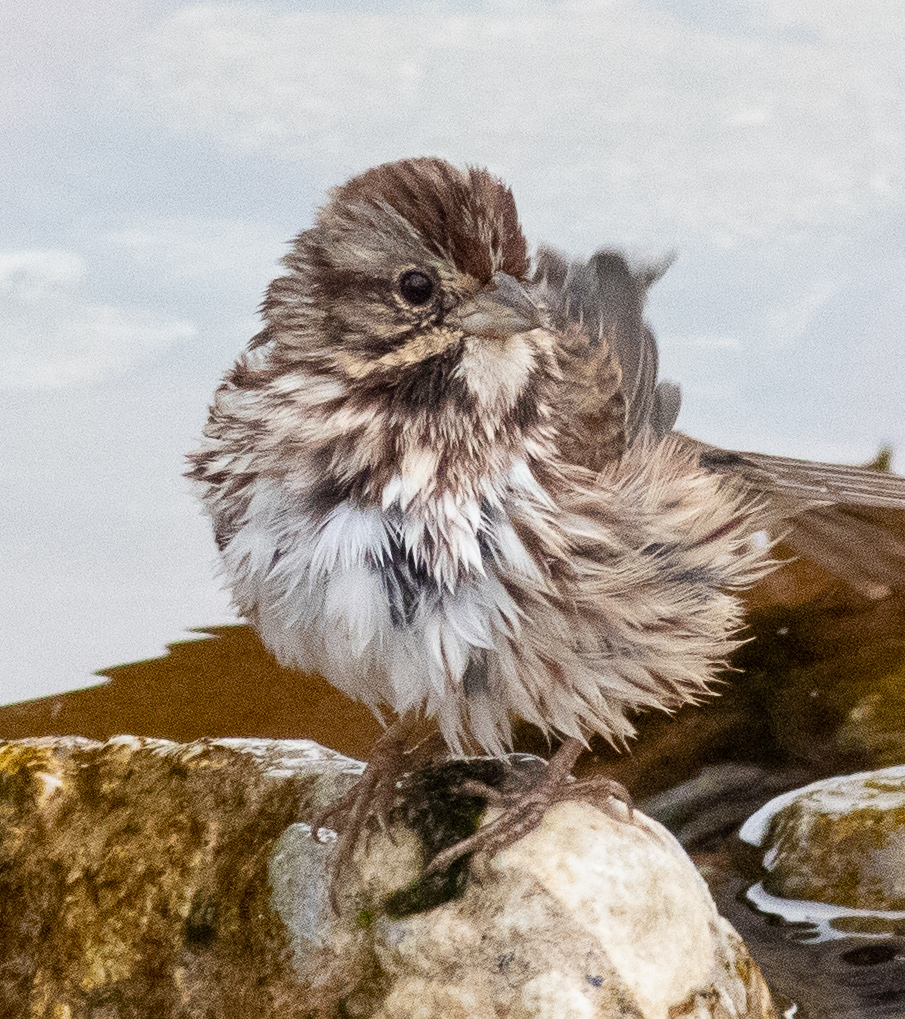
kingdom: Animalia
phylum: Chordata
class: Aves
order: Passeriformes
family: Passerellidae
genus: Melospiza
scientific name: Melospiza melodia
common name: Song sparrow
